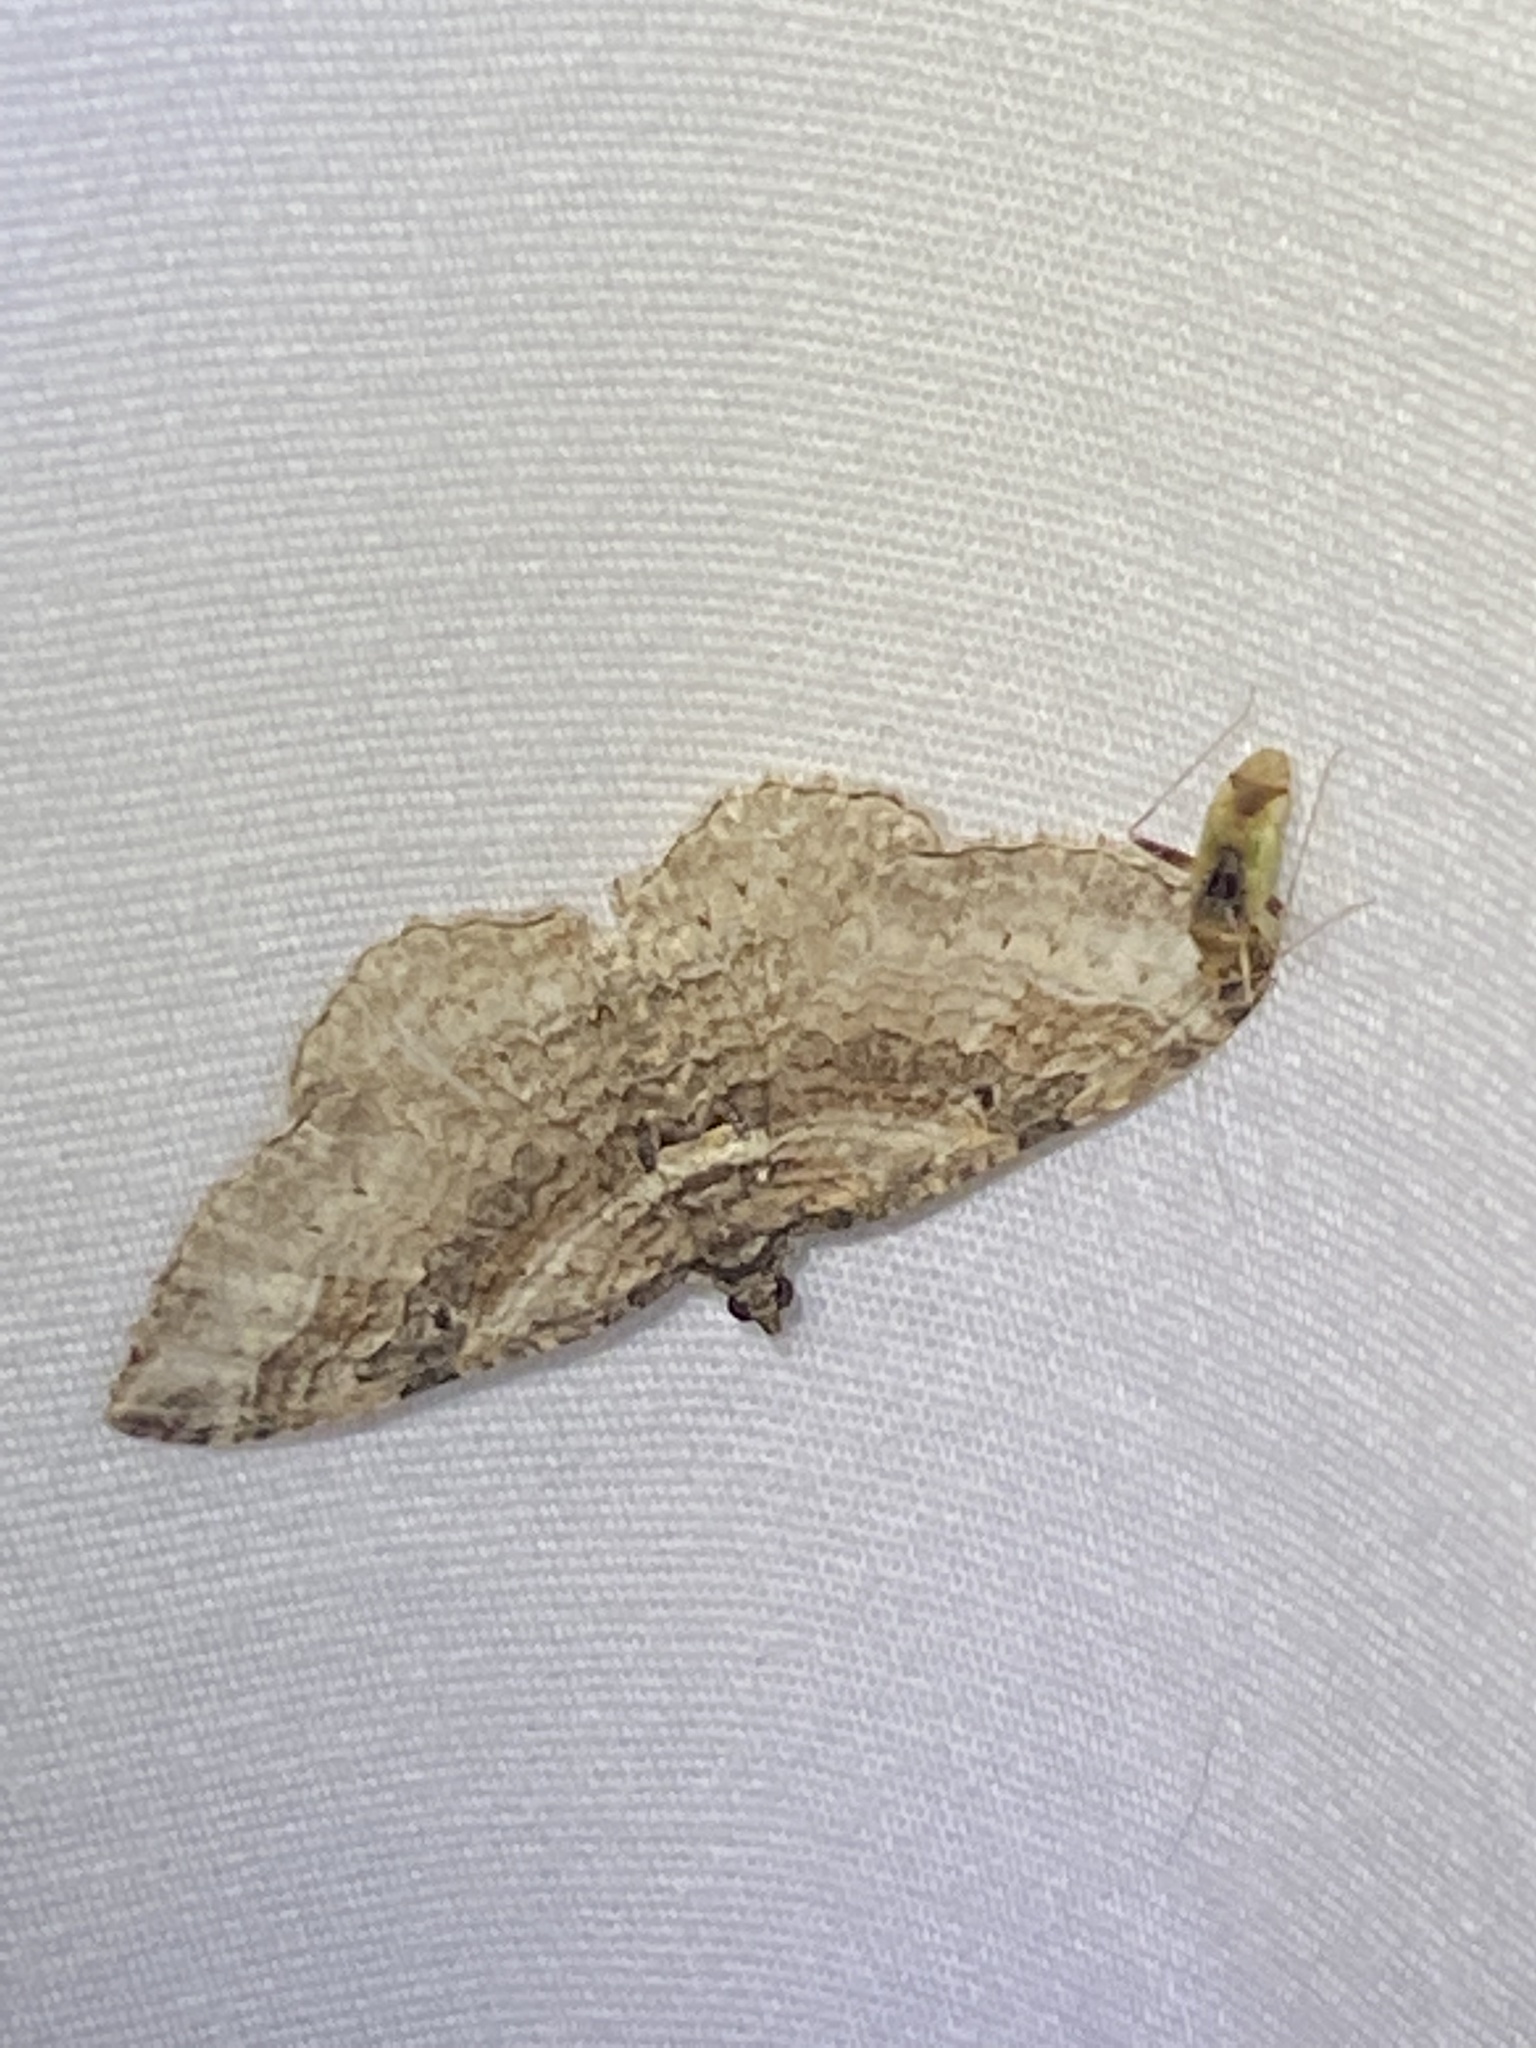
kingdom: Animalia
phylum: Arthropoda
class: Insecta
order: Lepidoptera
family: Geometridae
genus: Costaconvexa
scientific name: Costaconvexa centrostrigaria
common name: Bent-line carpet
